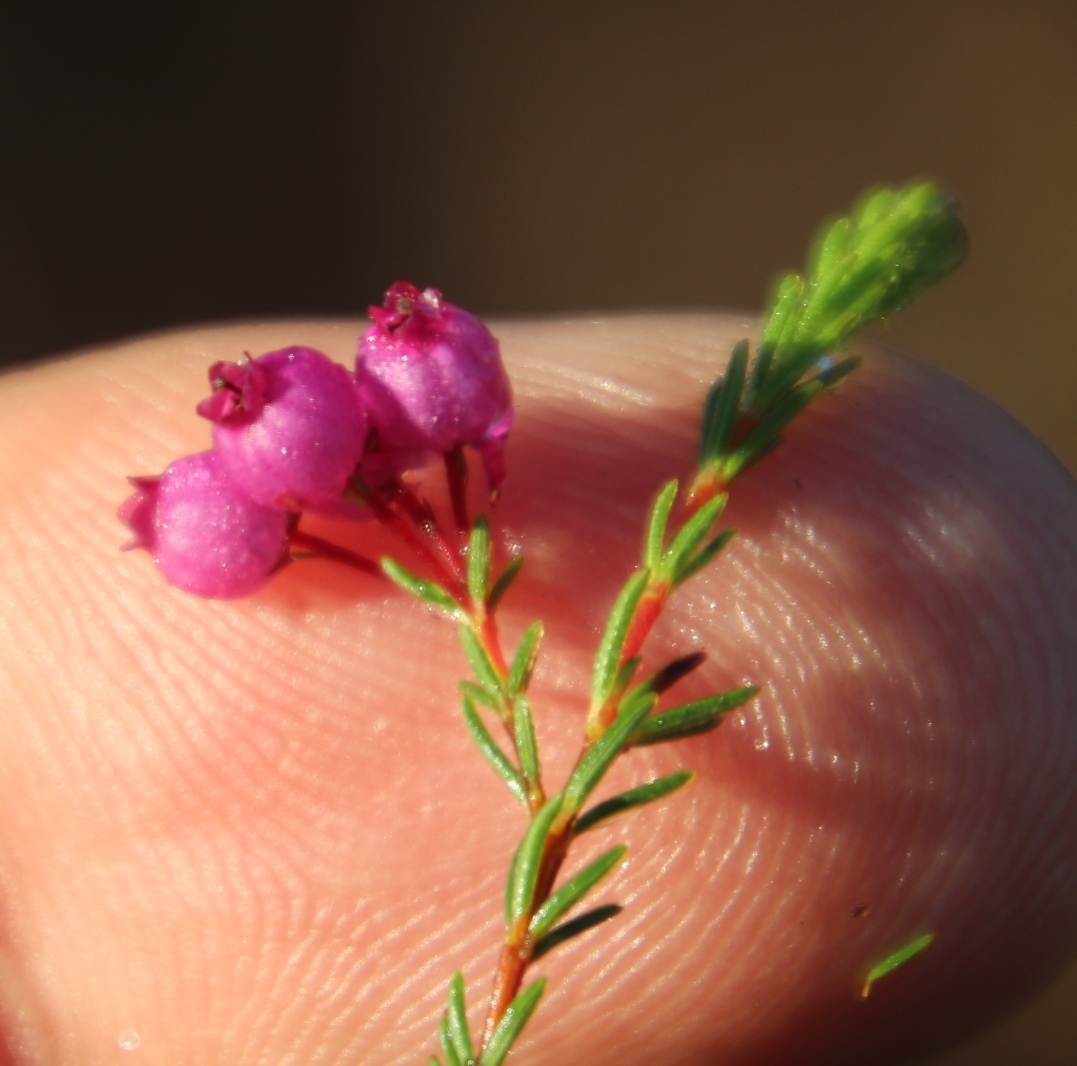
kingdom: Plantae
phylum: Tracheophyta
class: Magnoliopsida
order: Ericales
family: Ericaceae
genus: Erica
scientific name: Erica multumbellifera
